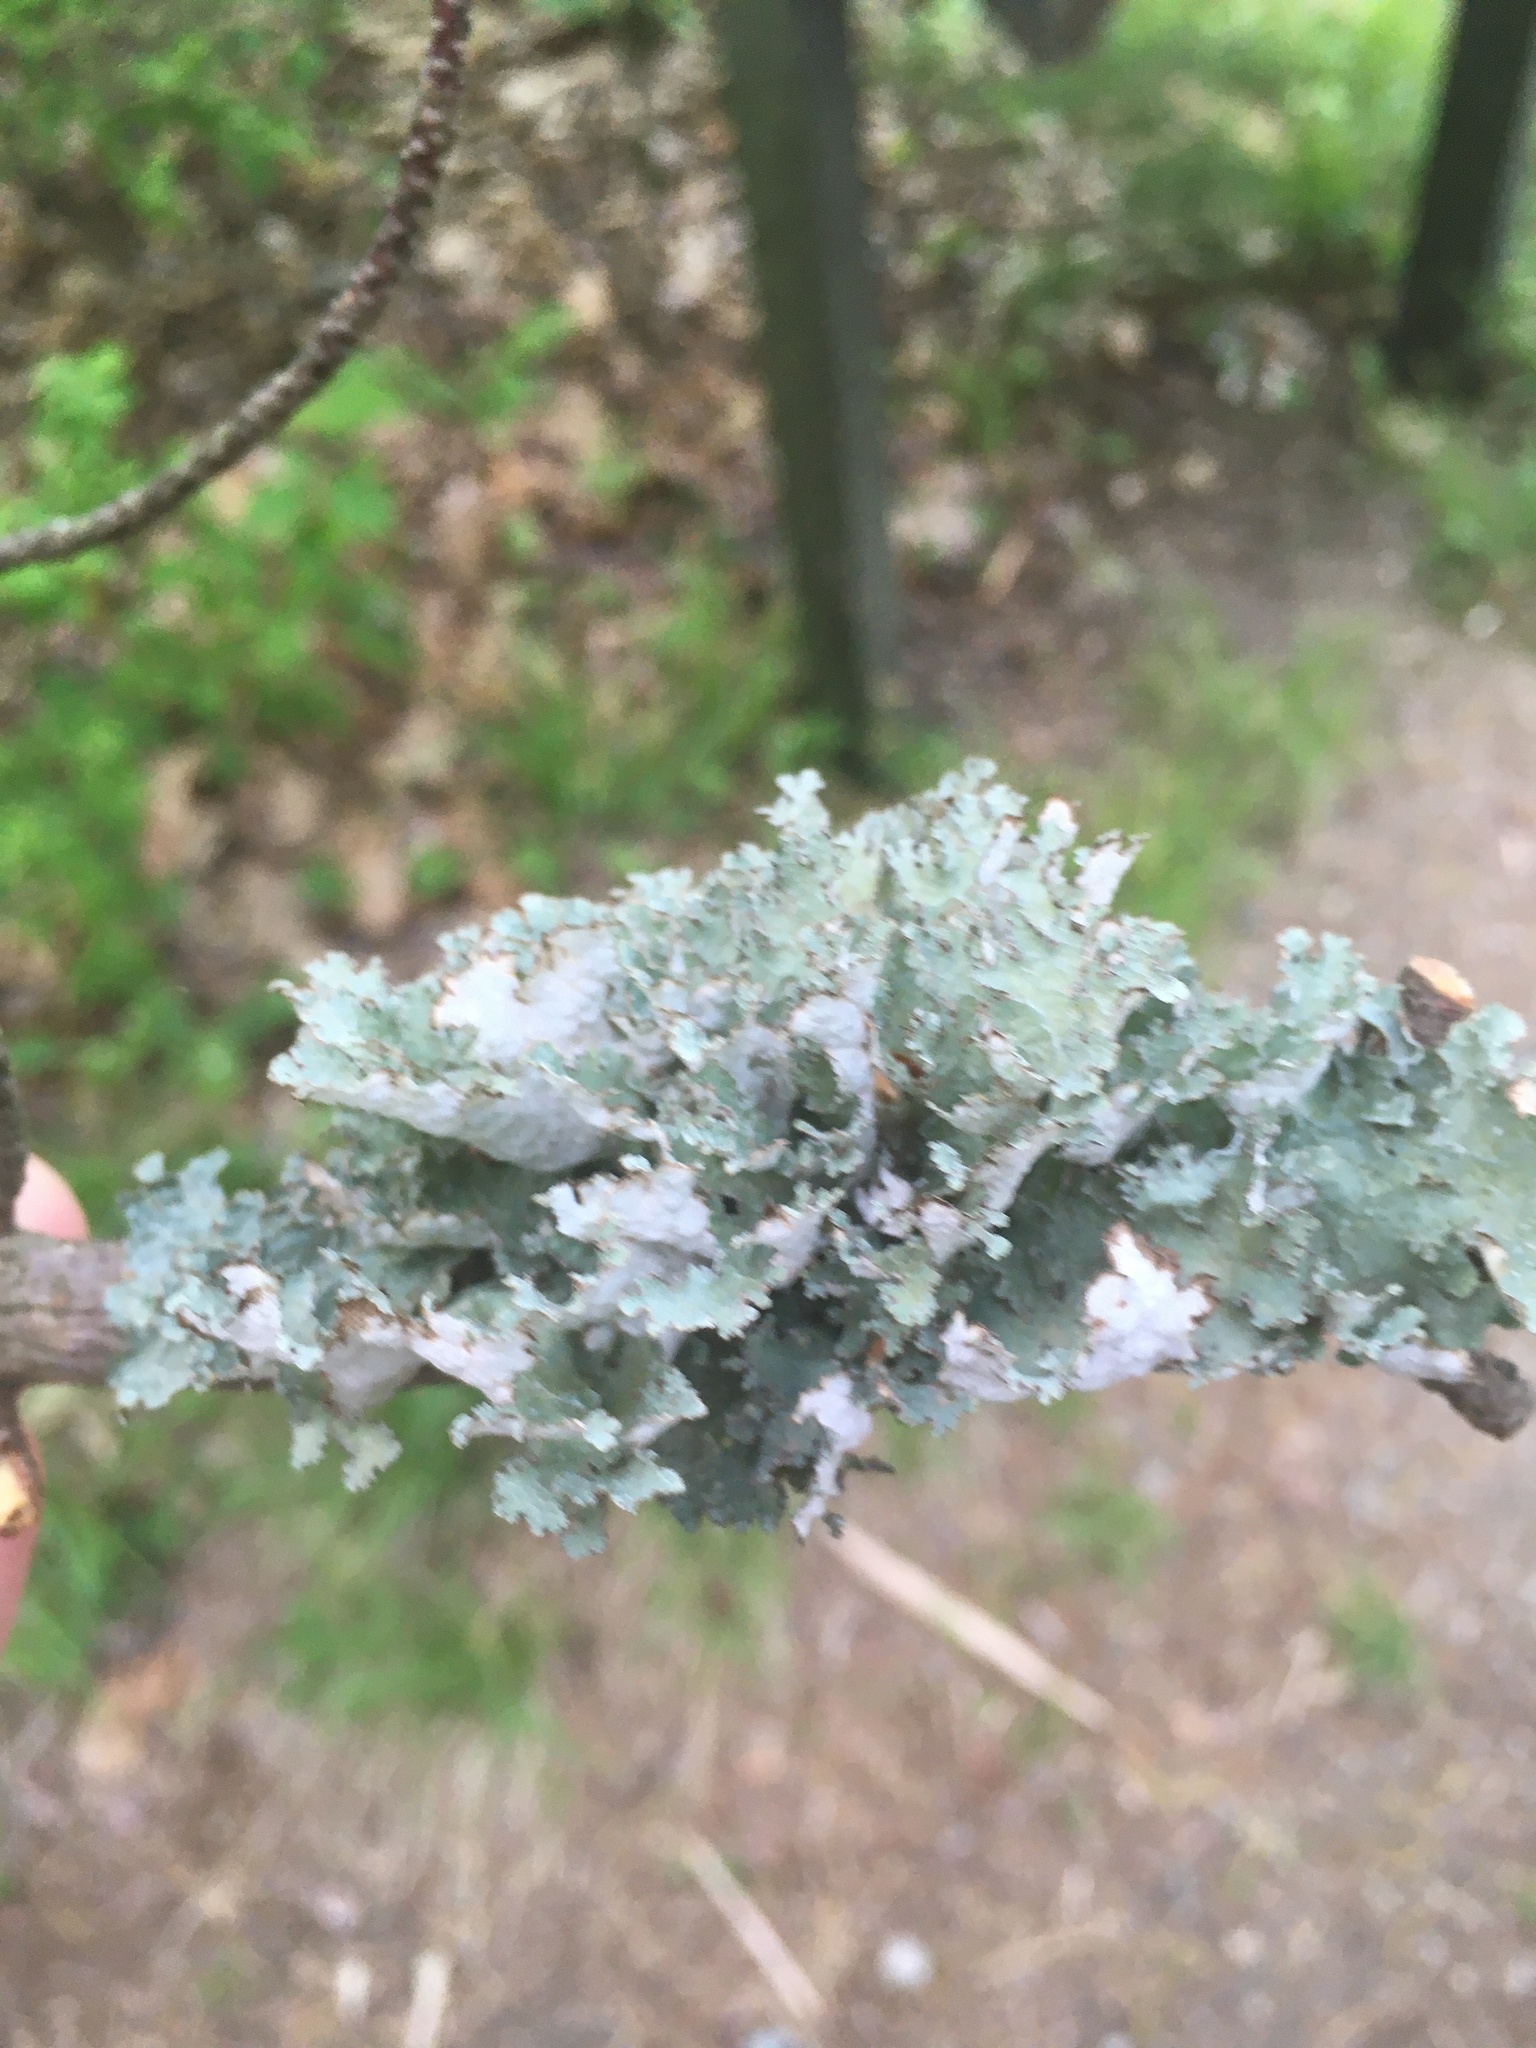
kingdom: Fungi
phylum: Ascomycota
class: Lecanoromycetes
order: Lecanorales
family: Parmeliaceae
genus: Platismatia
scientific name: Platismatia tuckermanii
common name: Crumpled rag lichen
